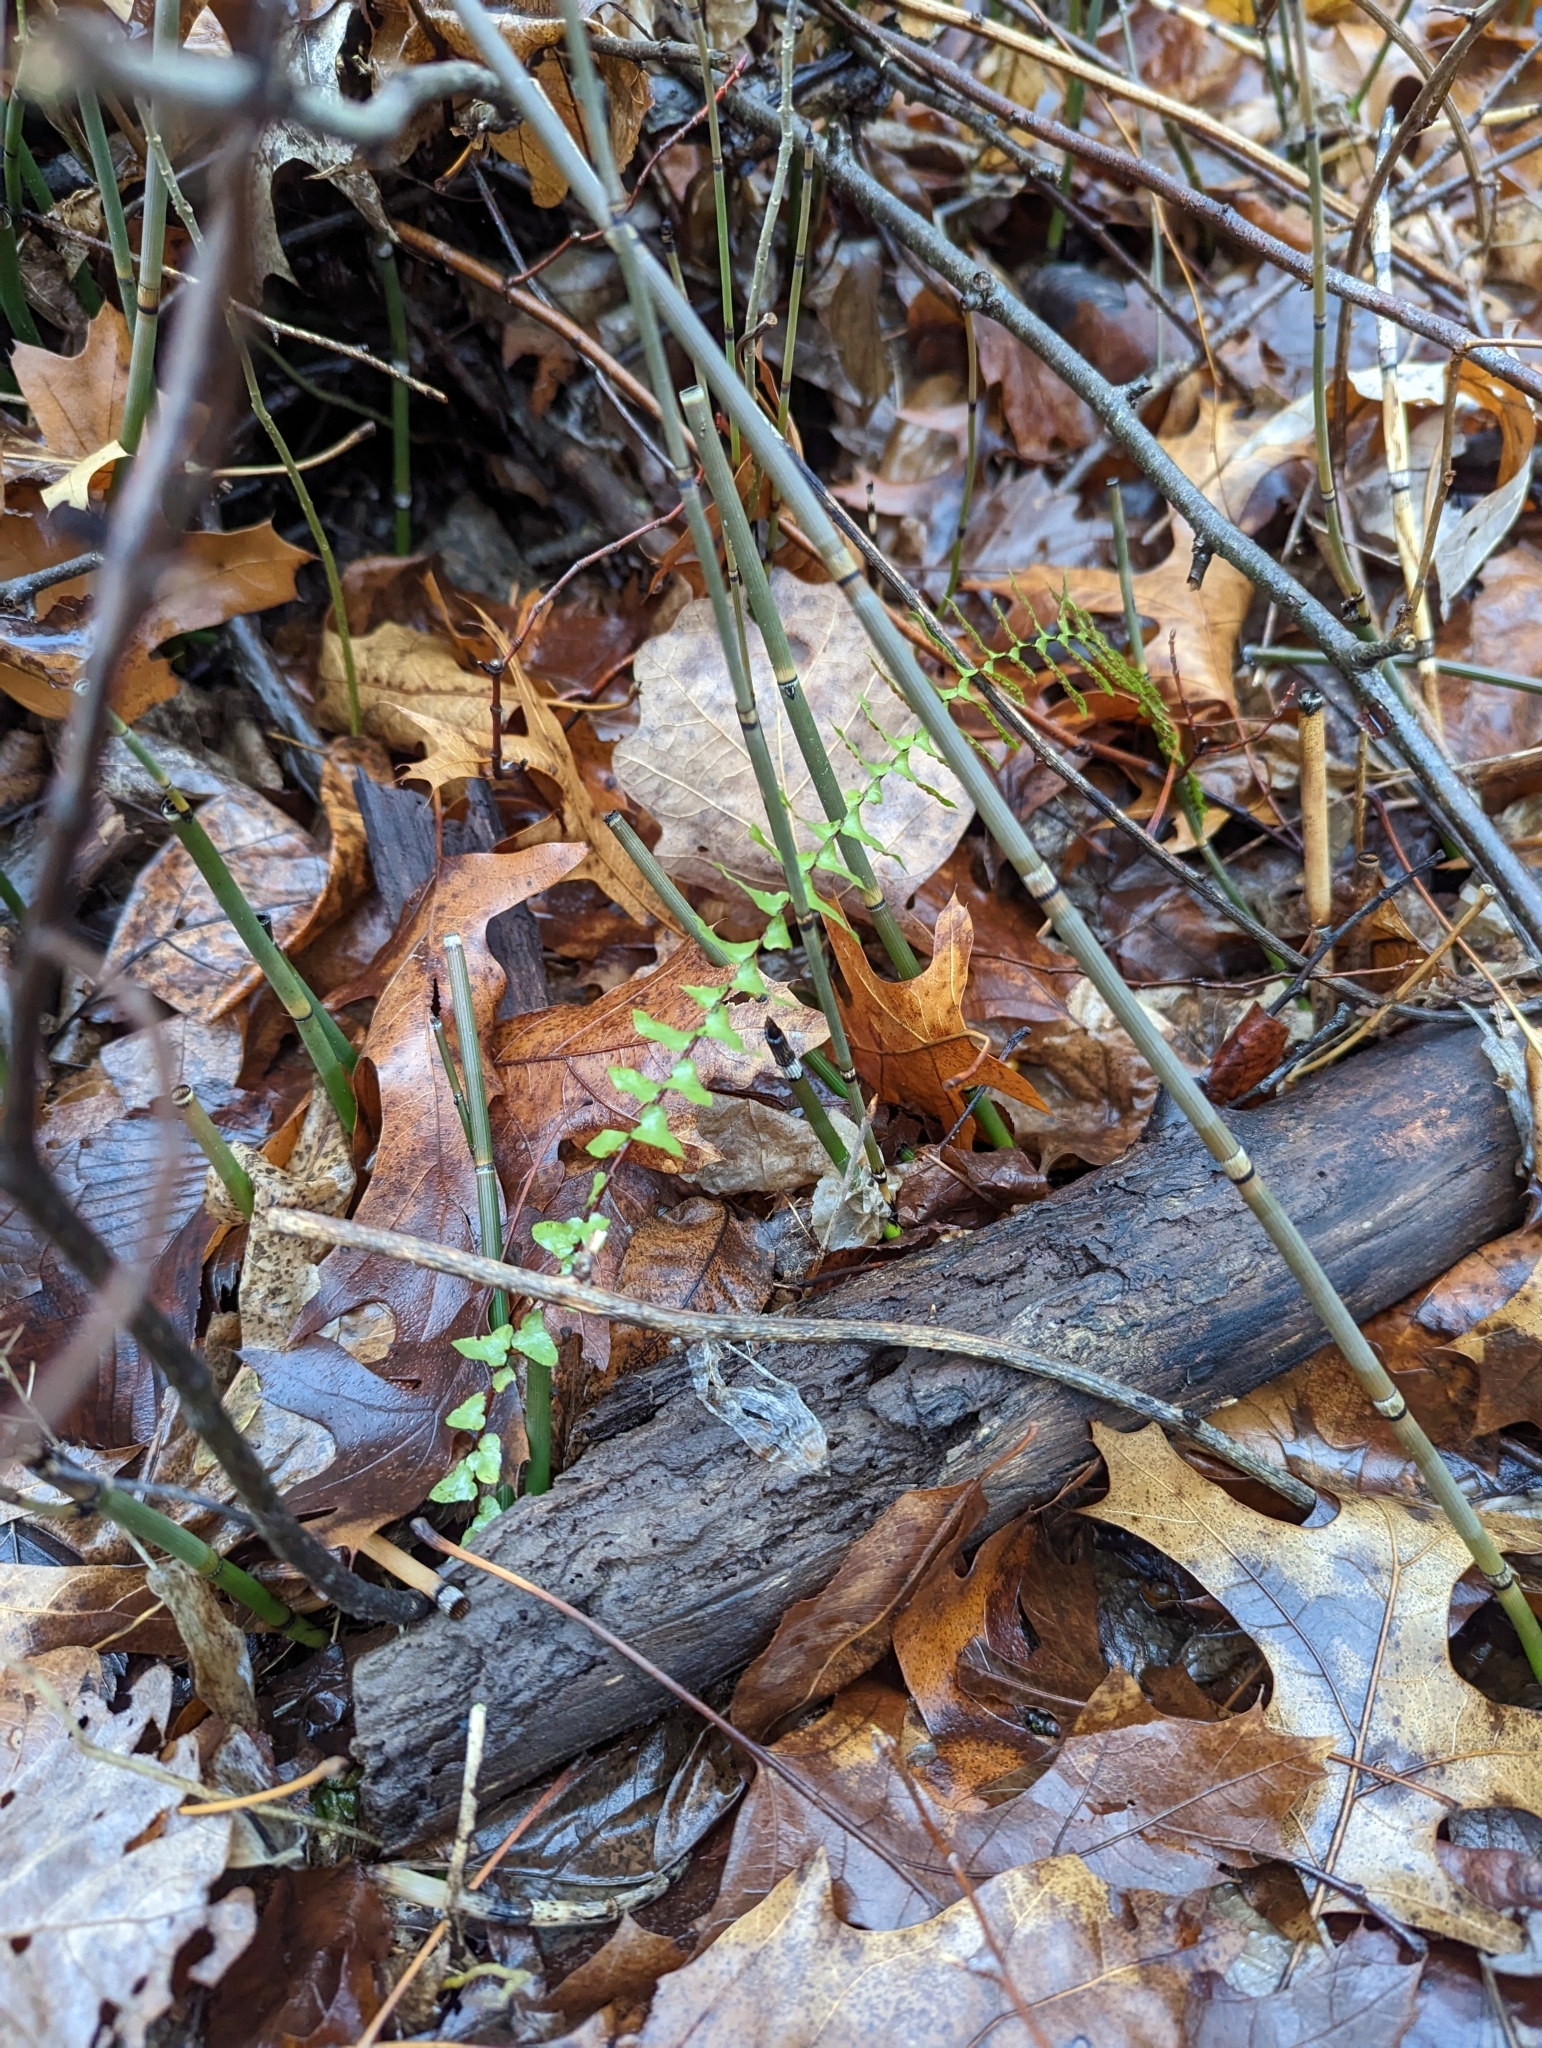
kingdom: Plantae
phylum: Tracheophyta
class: Polypodiopsida
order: Polypodiales
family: Aspleniaceae
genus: Asplenium
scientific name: Asplenium platyneuron
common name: Ebony spleenwort
